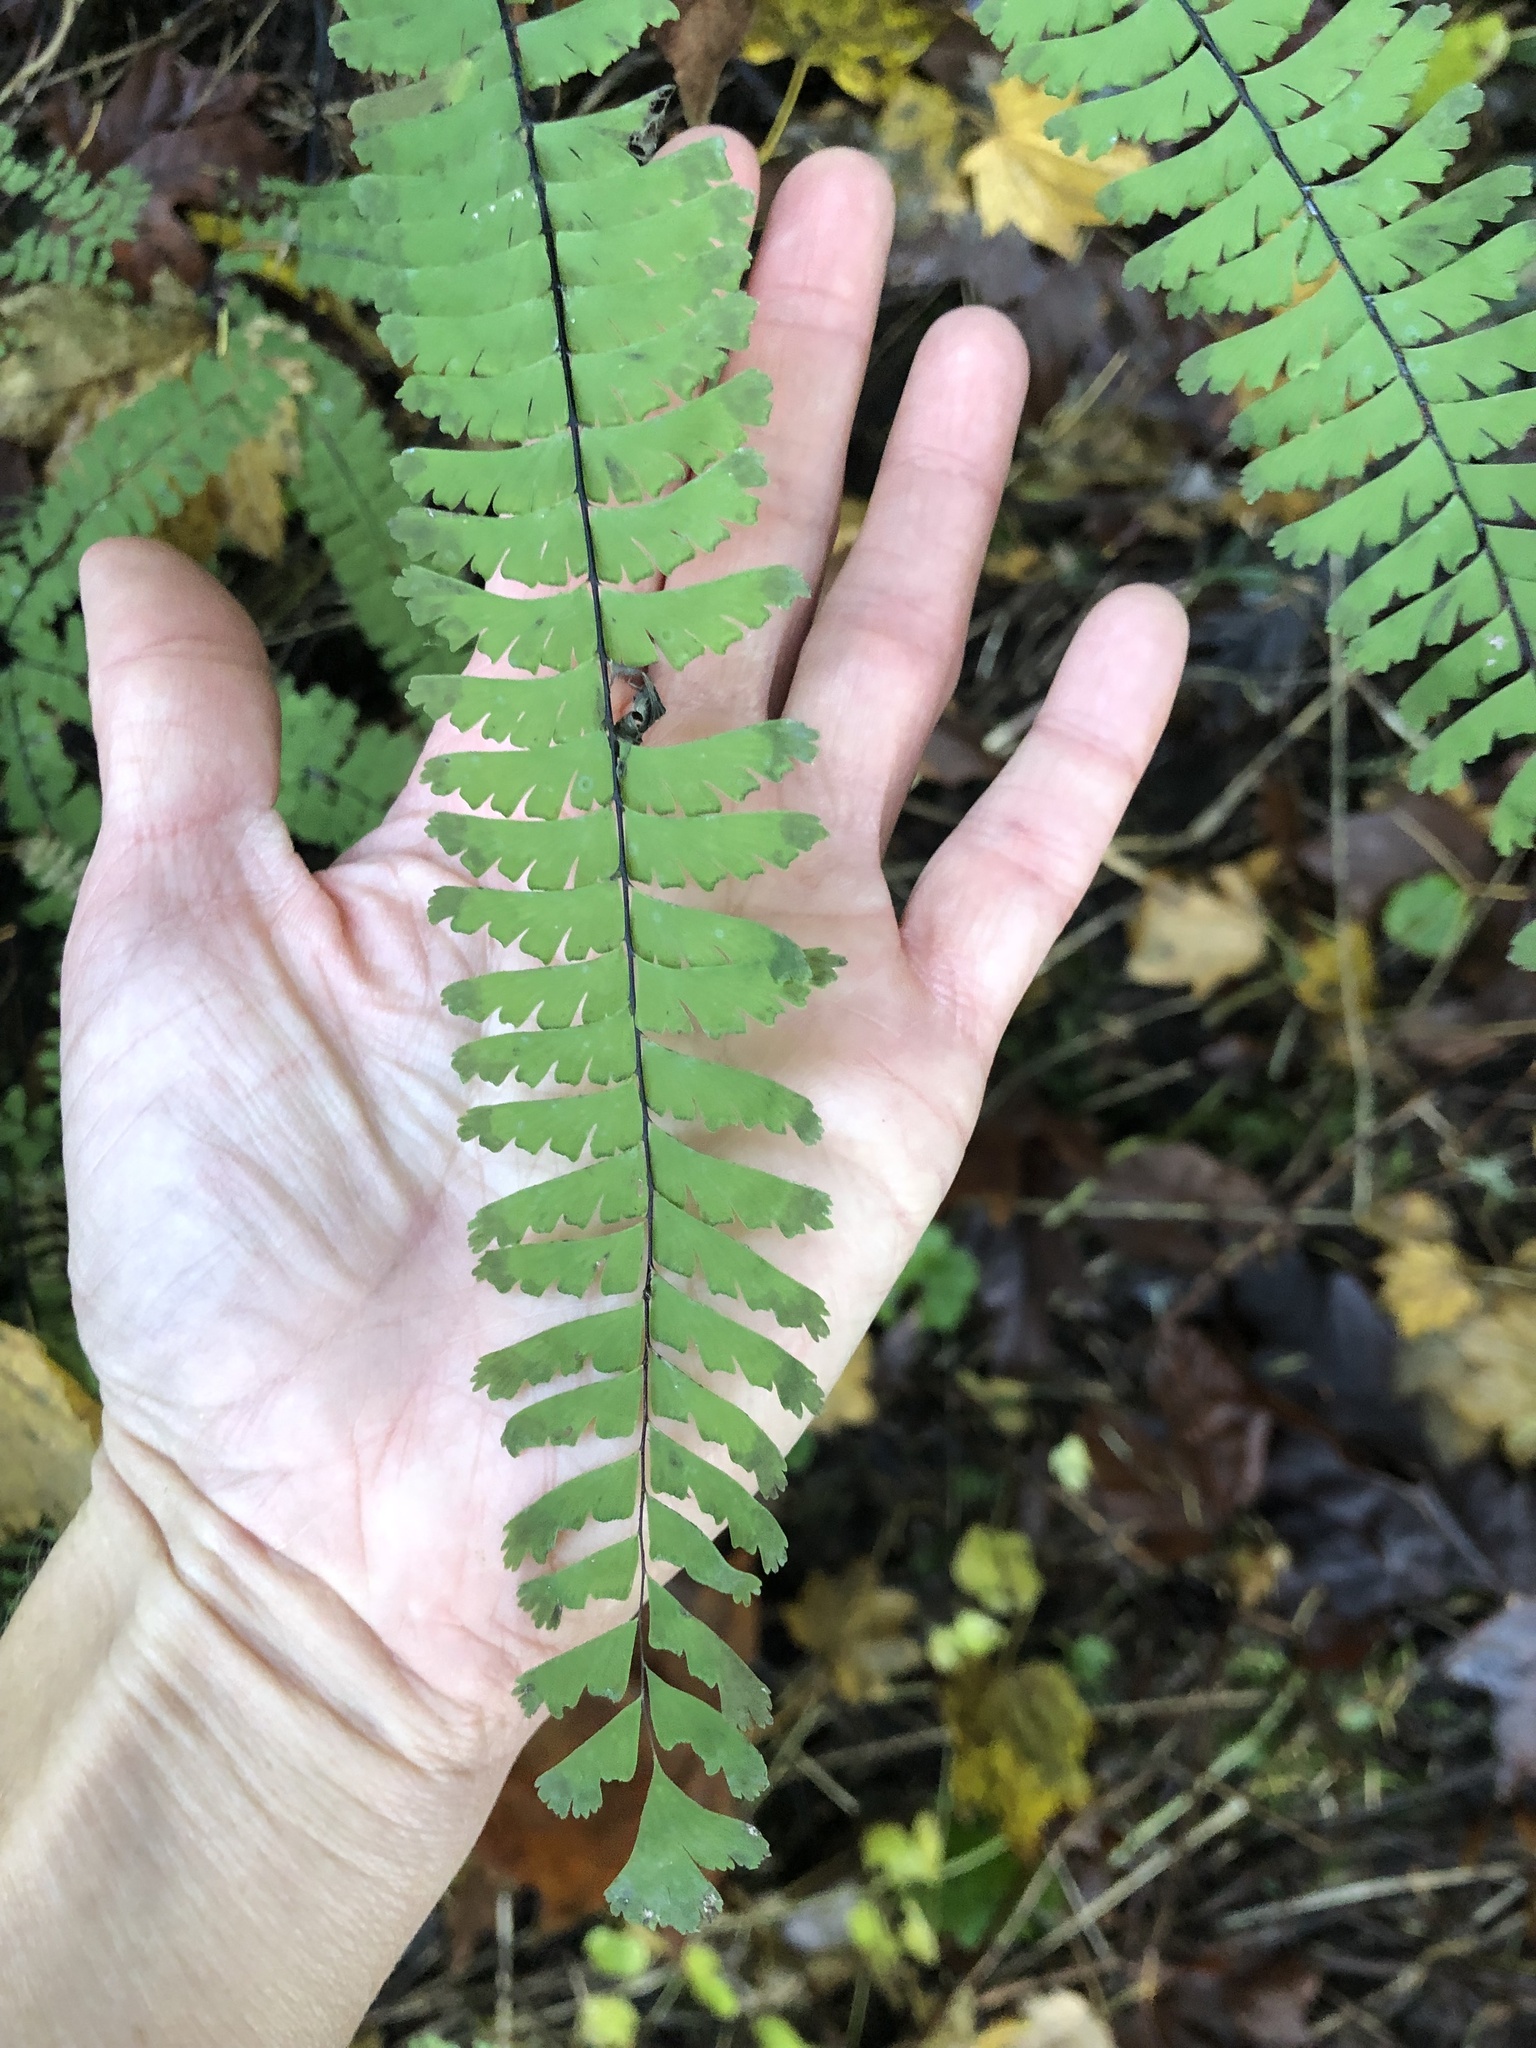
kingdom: Plantae
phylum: Tracheophyta
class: Polypodiopsida
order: Polypodiales
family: Pteridaceae
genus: Adiantum
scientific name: Adiantum aleuticum
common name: Aleutian maidenhair fern
